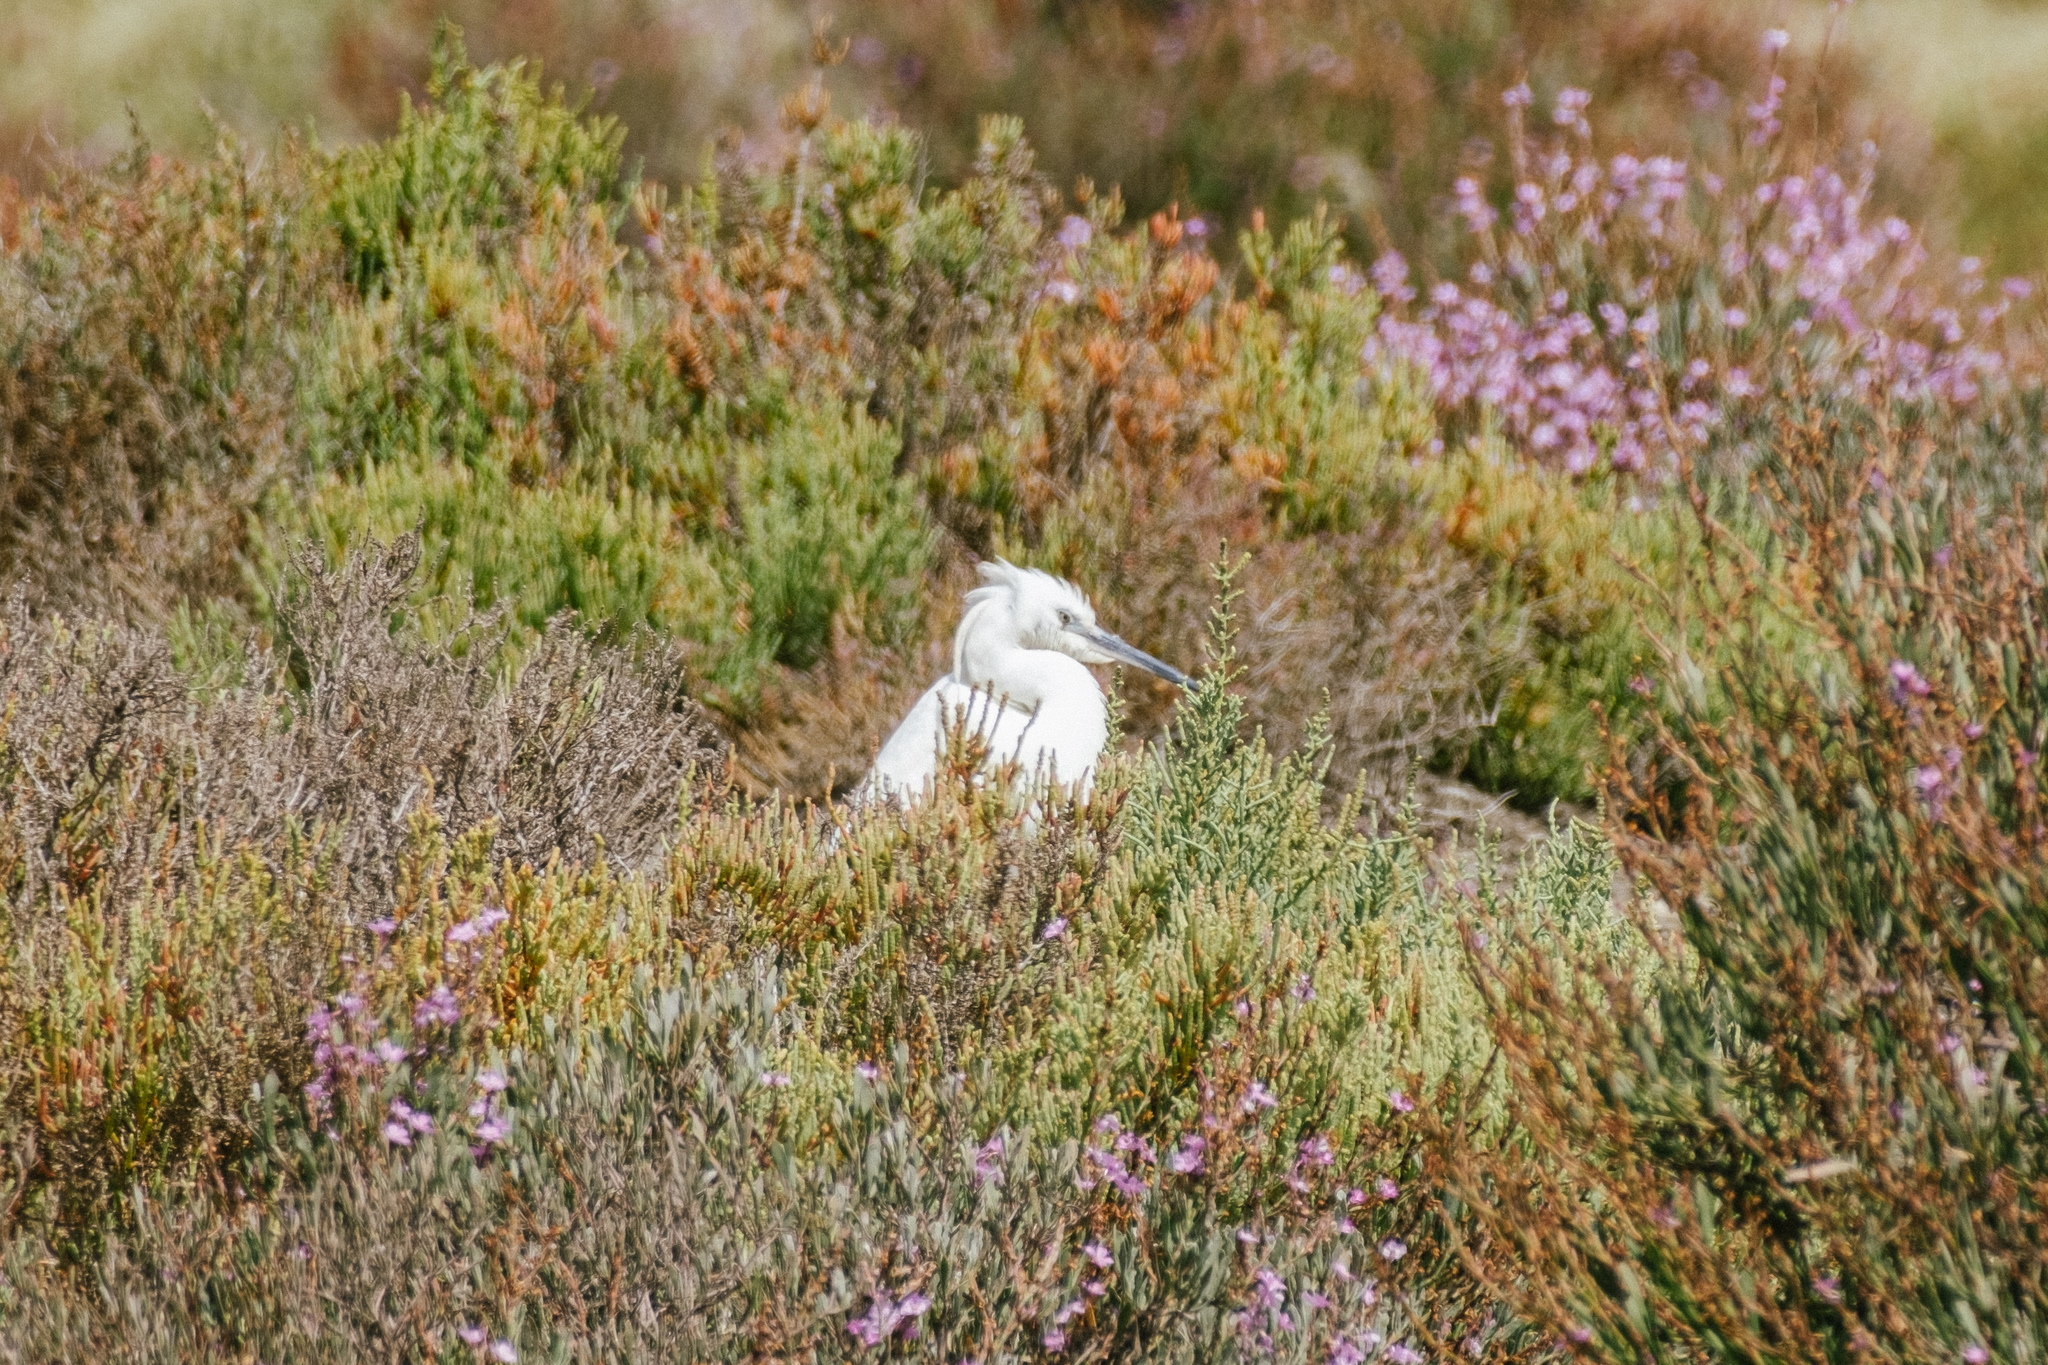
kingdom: Animalia
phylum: Chordata
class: Aves
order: Pelecaniformes
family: Ardeidae
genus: Egretta
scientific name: Egretta garzetta
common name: Little egret
